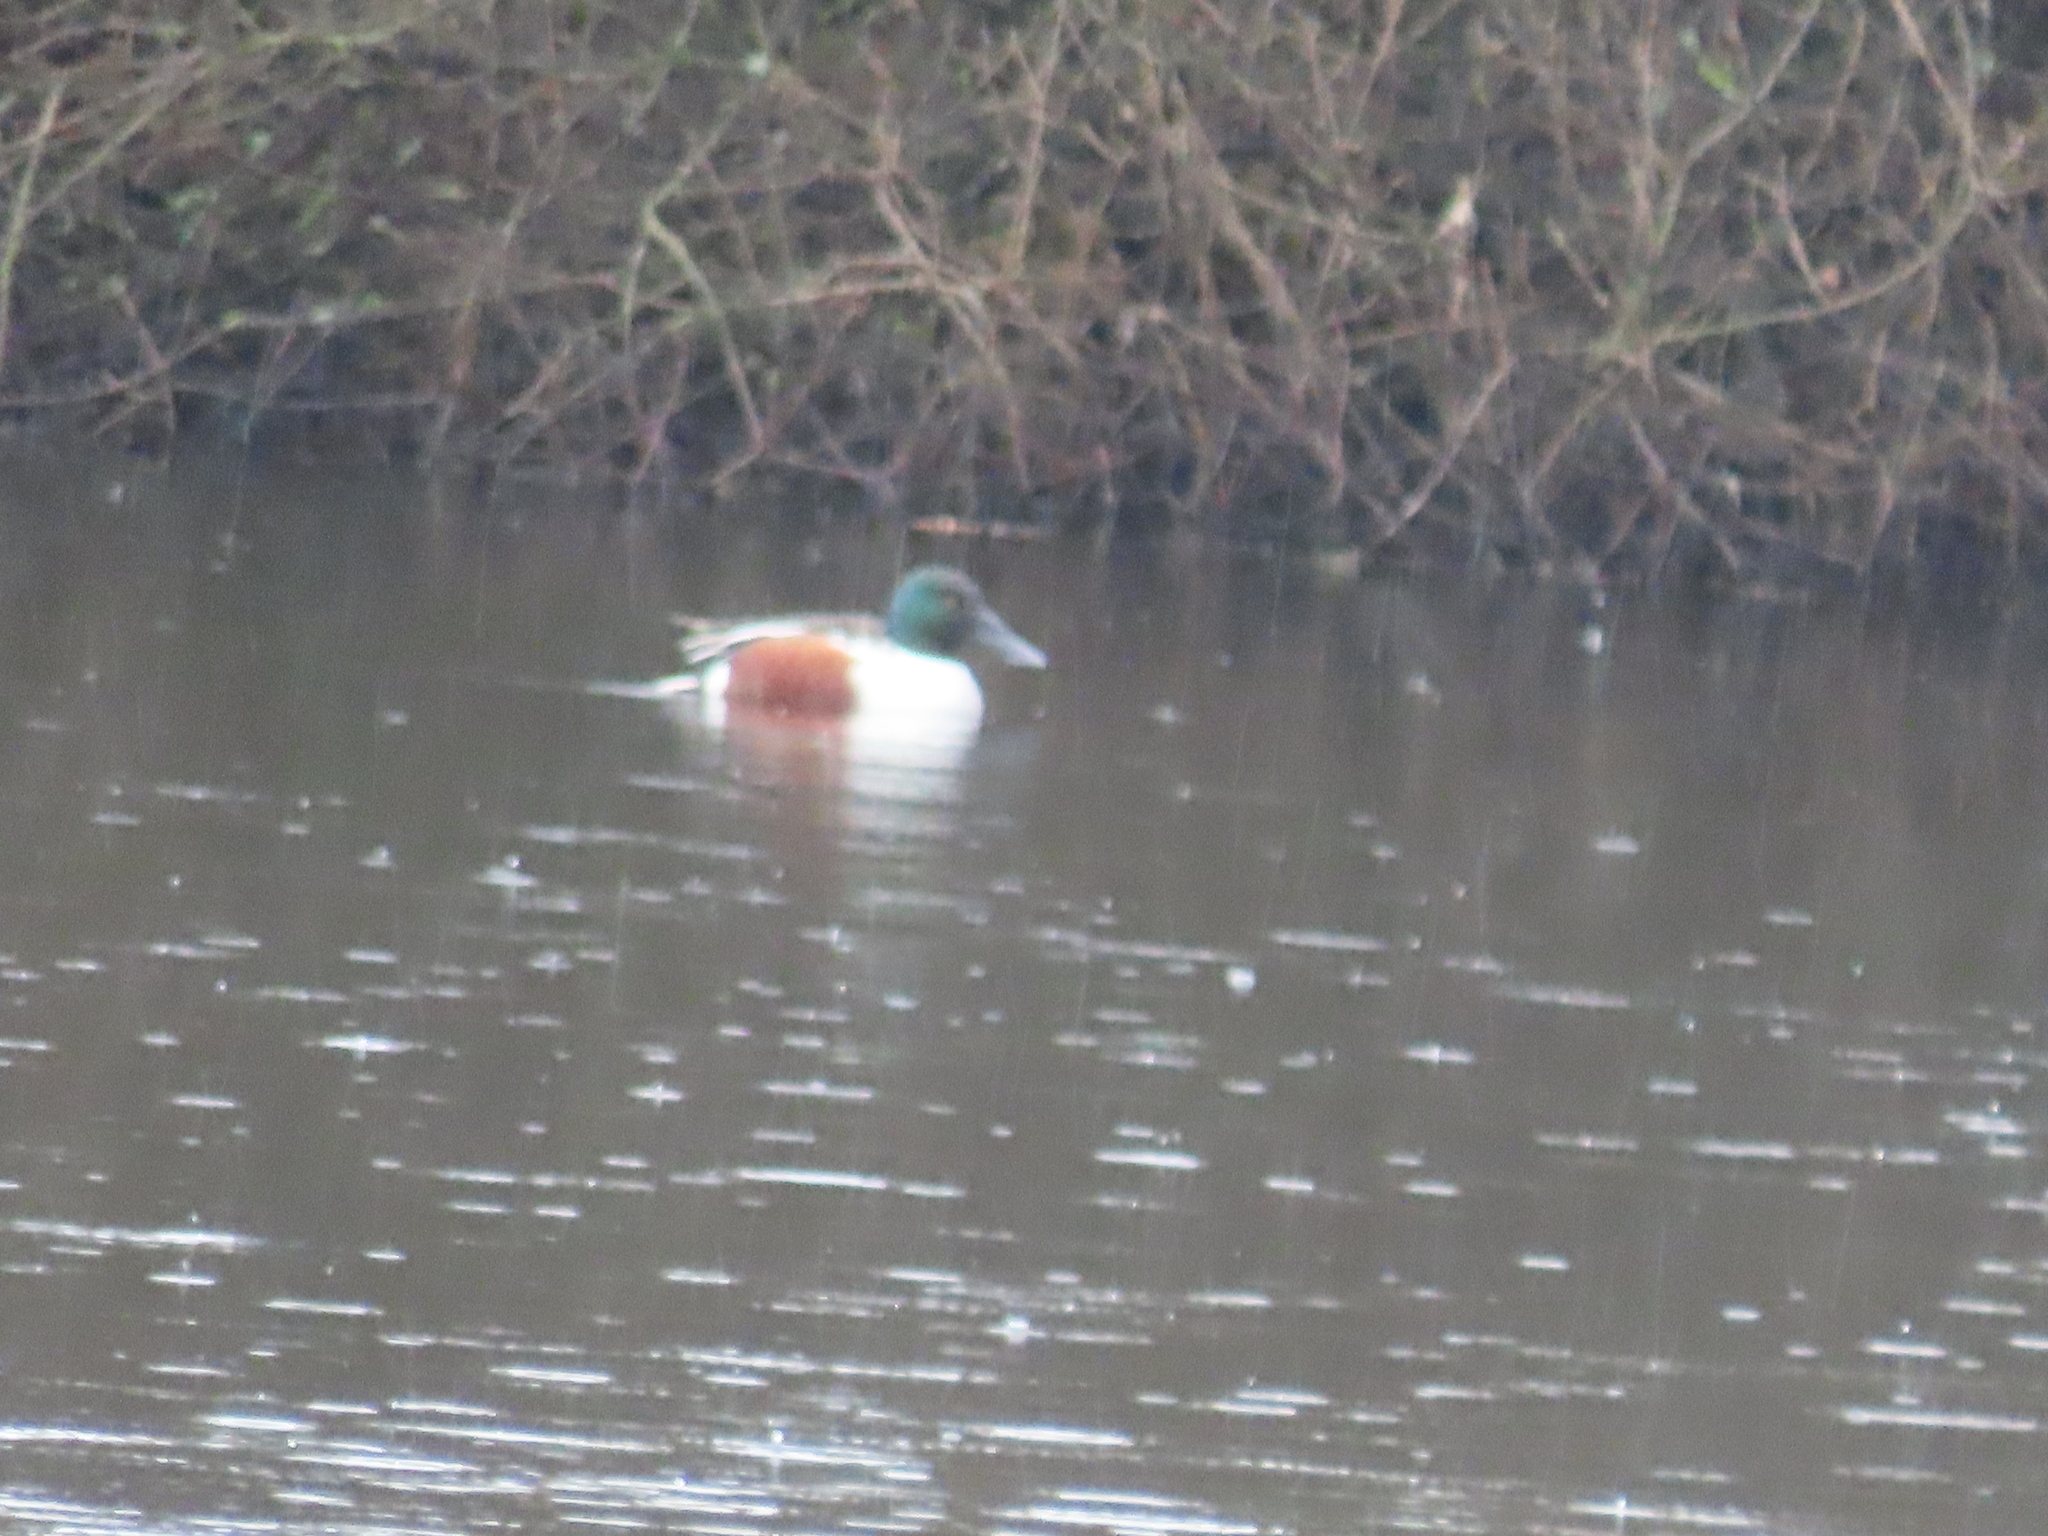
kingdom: Animalia
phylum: Chordata
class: Aves
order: Anseriformes
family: Anatidae
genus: Spatula
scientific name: Spatula clypeata
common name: Northern shoveler
